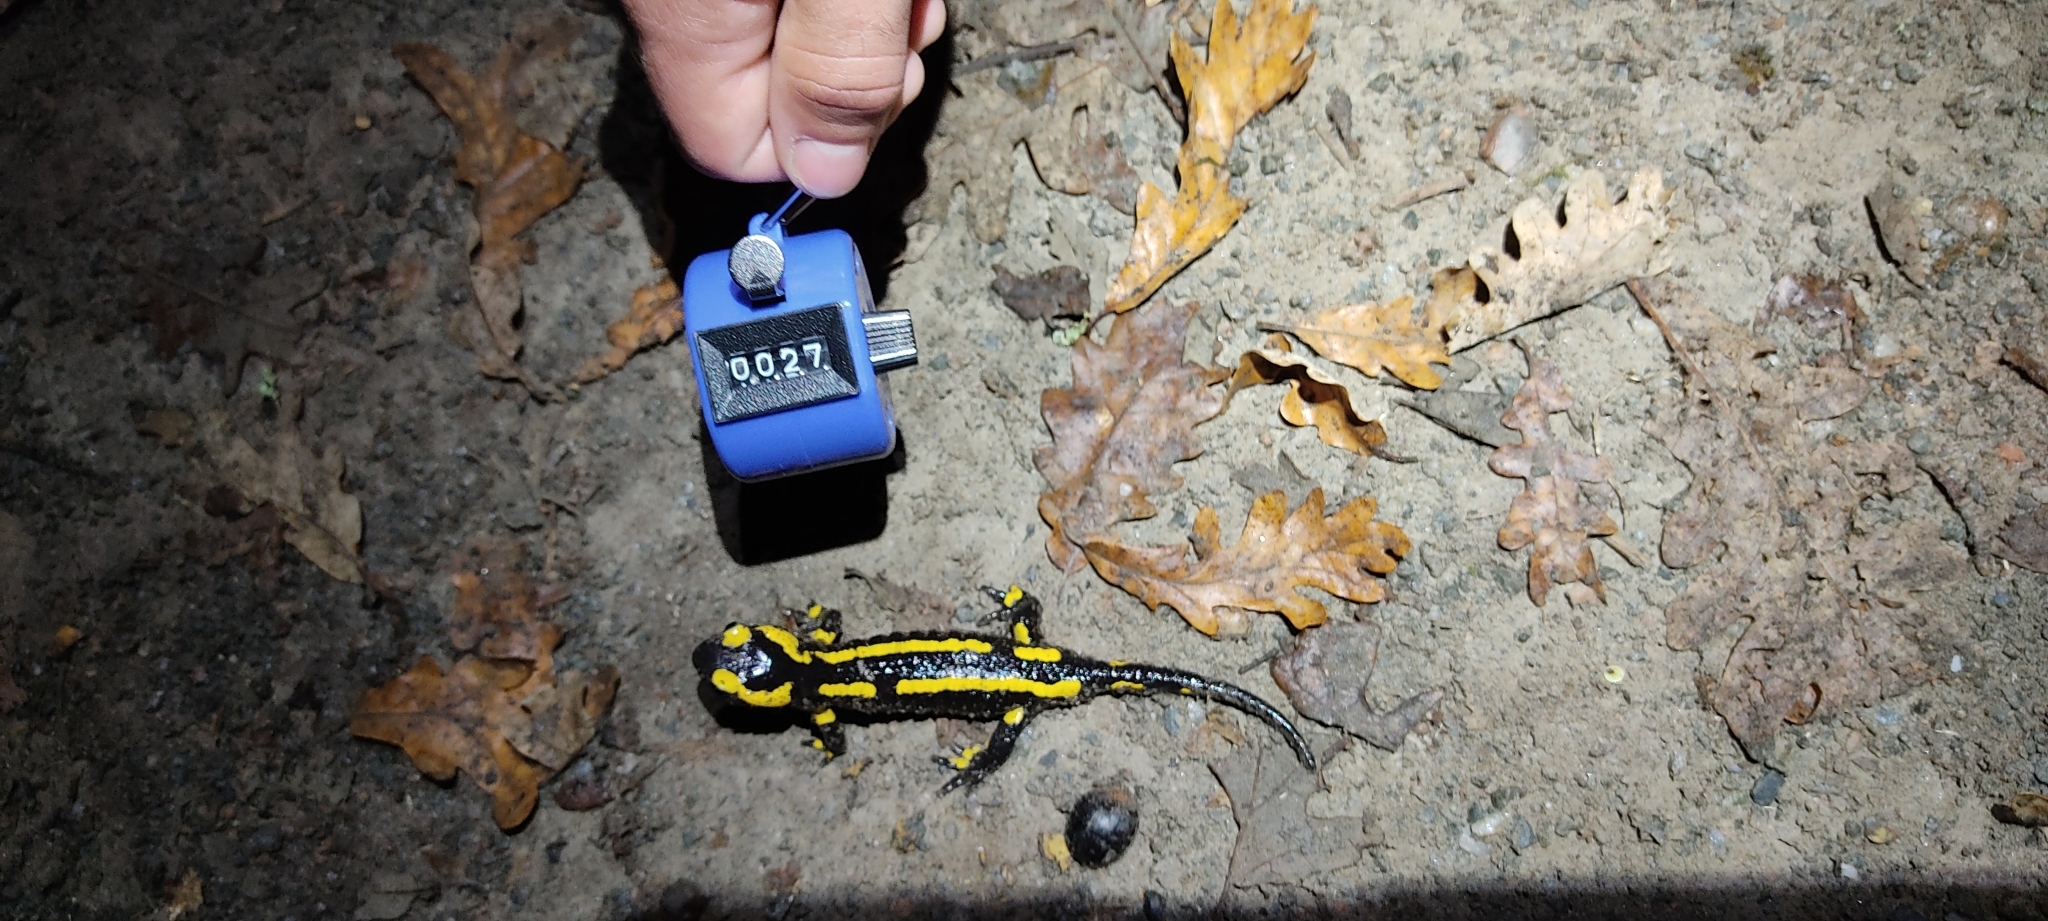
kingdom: Animalia
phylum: Chordata
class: Amphibia
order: Caudata
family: Salamandridae
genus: Salamandra
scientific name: Salamandra salamandra
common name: Fire salamander
